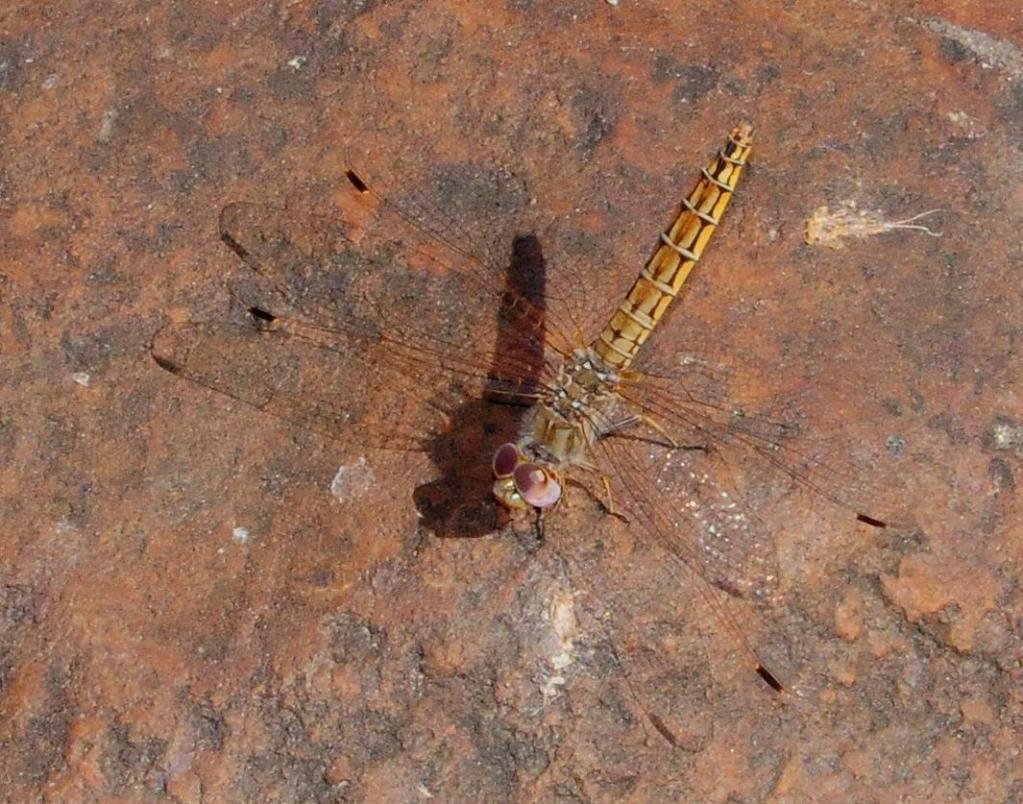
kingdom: Animalia
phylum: Arthropoda
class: Insecta
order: Odonata
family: Libellulidae
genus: Trithemis
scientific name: Trithemis kirbyi
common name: Kirby's dropwing
